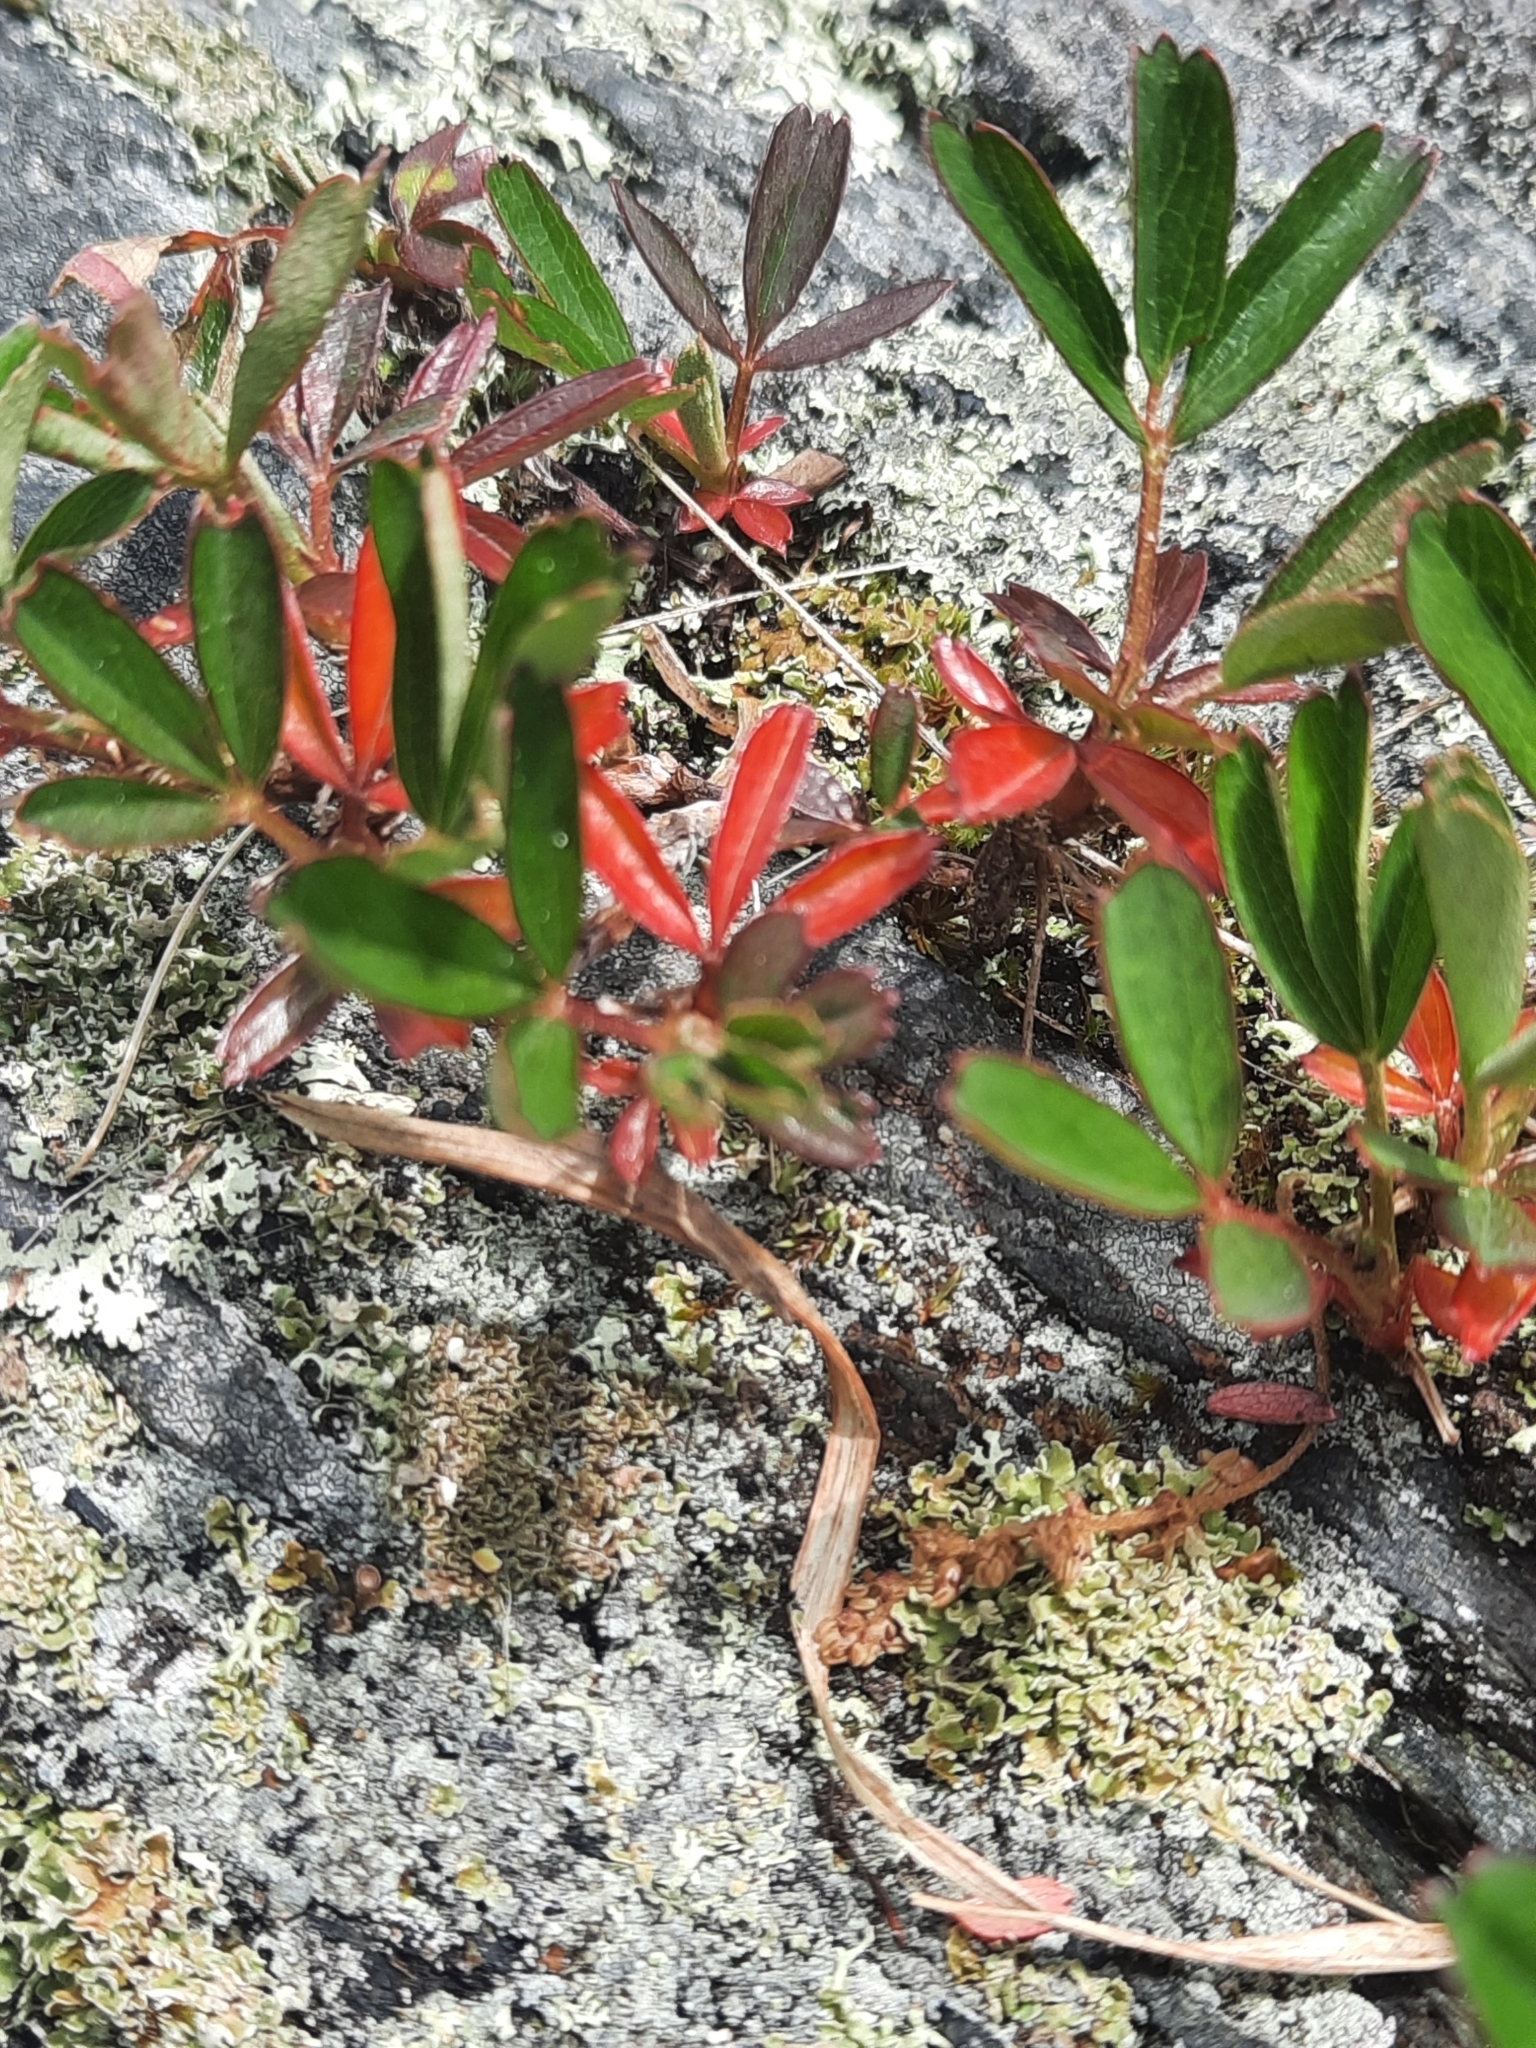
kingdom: Plantae
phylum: Tracheophyta
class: Magnoliopsida
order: Rosales
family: Rosaceae
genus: Sibbaldia
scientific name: Sibbaldia tridentata
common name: Three-toothed cinquefoil
